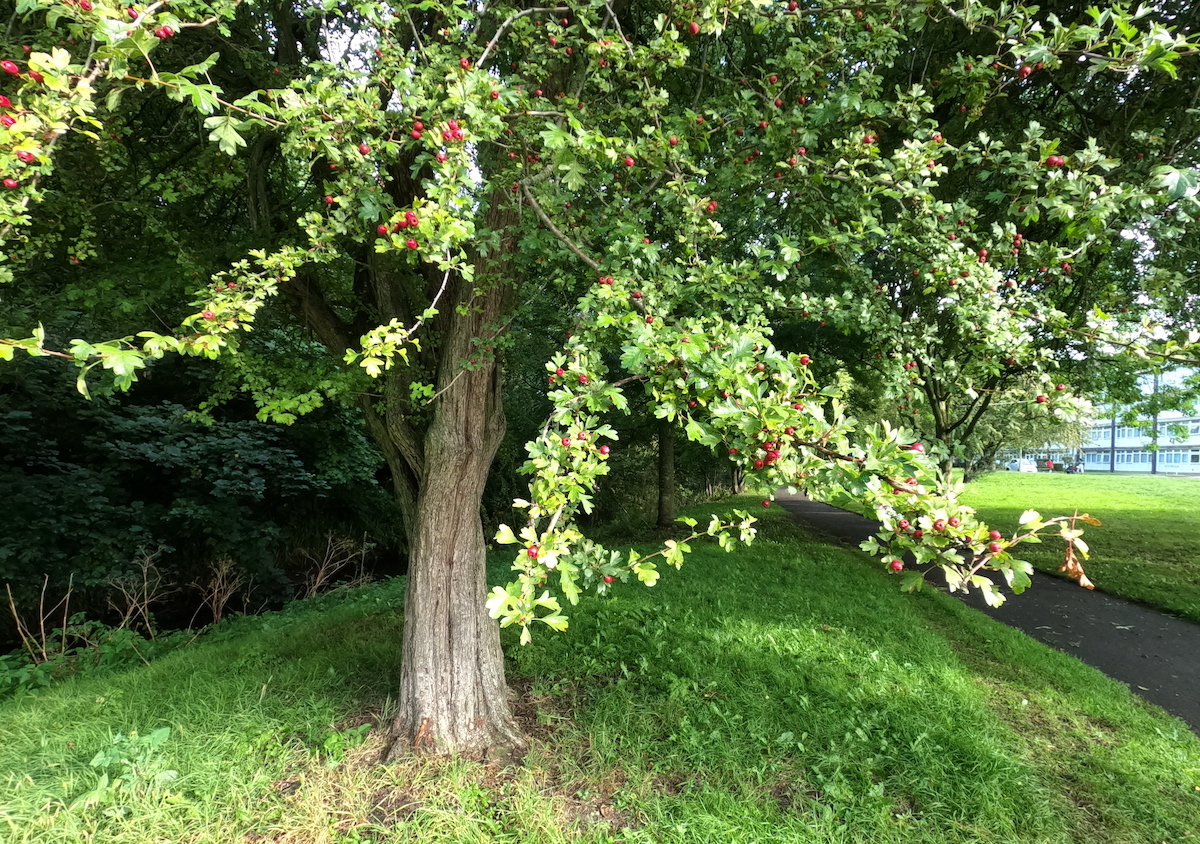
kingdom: Plantae
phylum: Tracheophyta
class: Magnoliopsida
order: Rosales
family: Rosaceae
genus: Crataegus
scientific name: Crataegus monogyna
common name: Hawthorn
